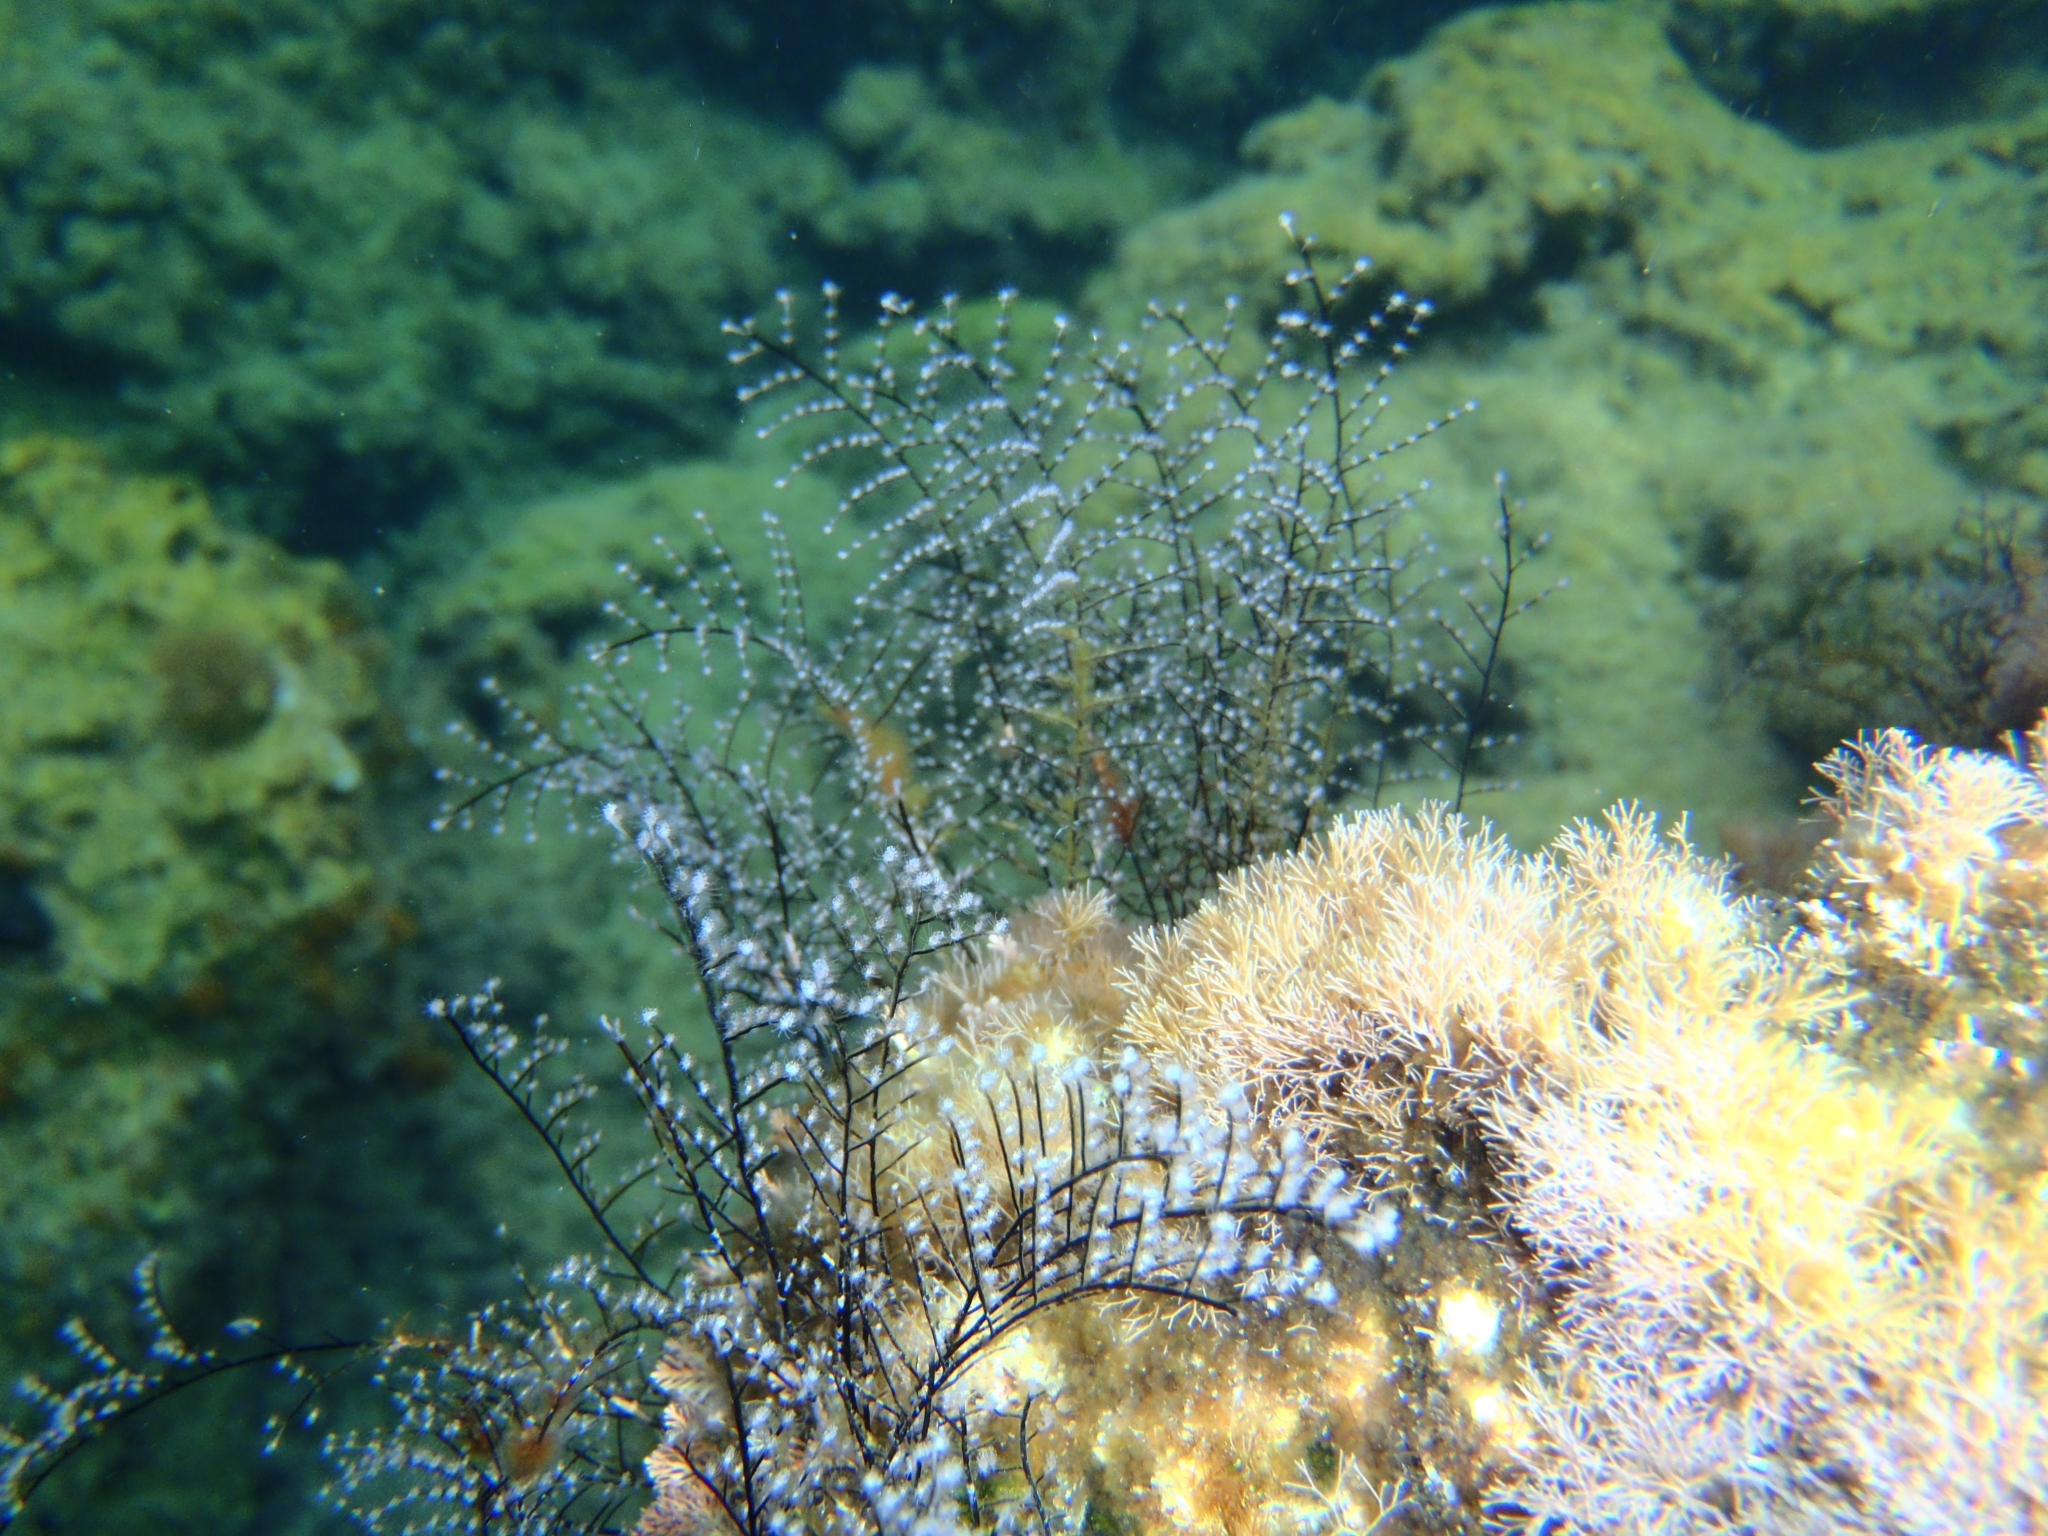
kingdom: Animalia
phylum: Cnidaria
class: Hydrozoa
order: Anthoathecata
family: Pennariidae
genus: Pennaria
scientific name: Pennaria disticha
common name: Feather hydroid
